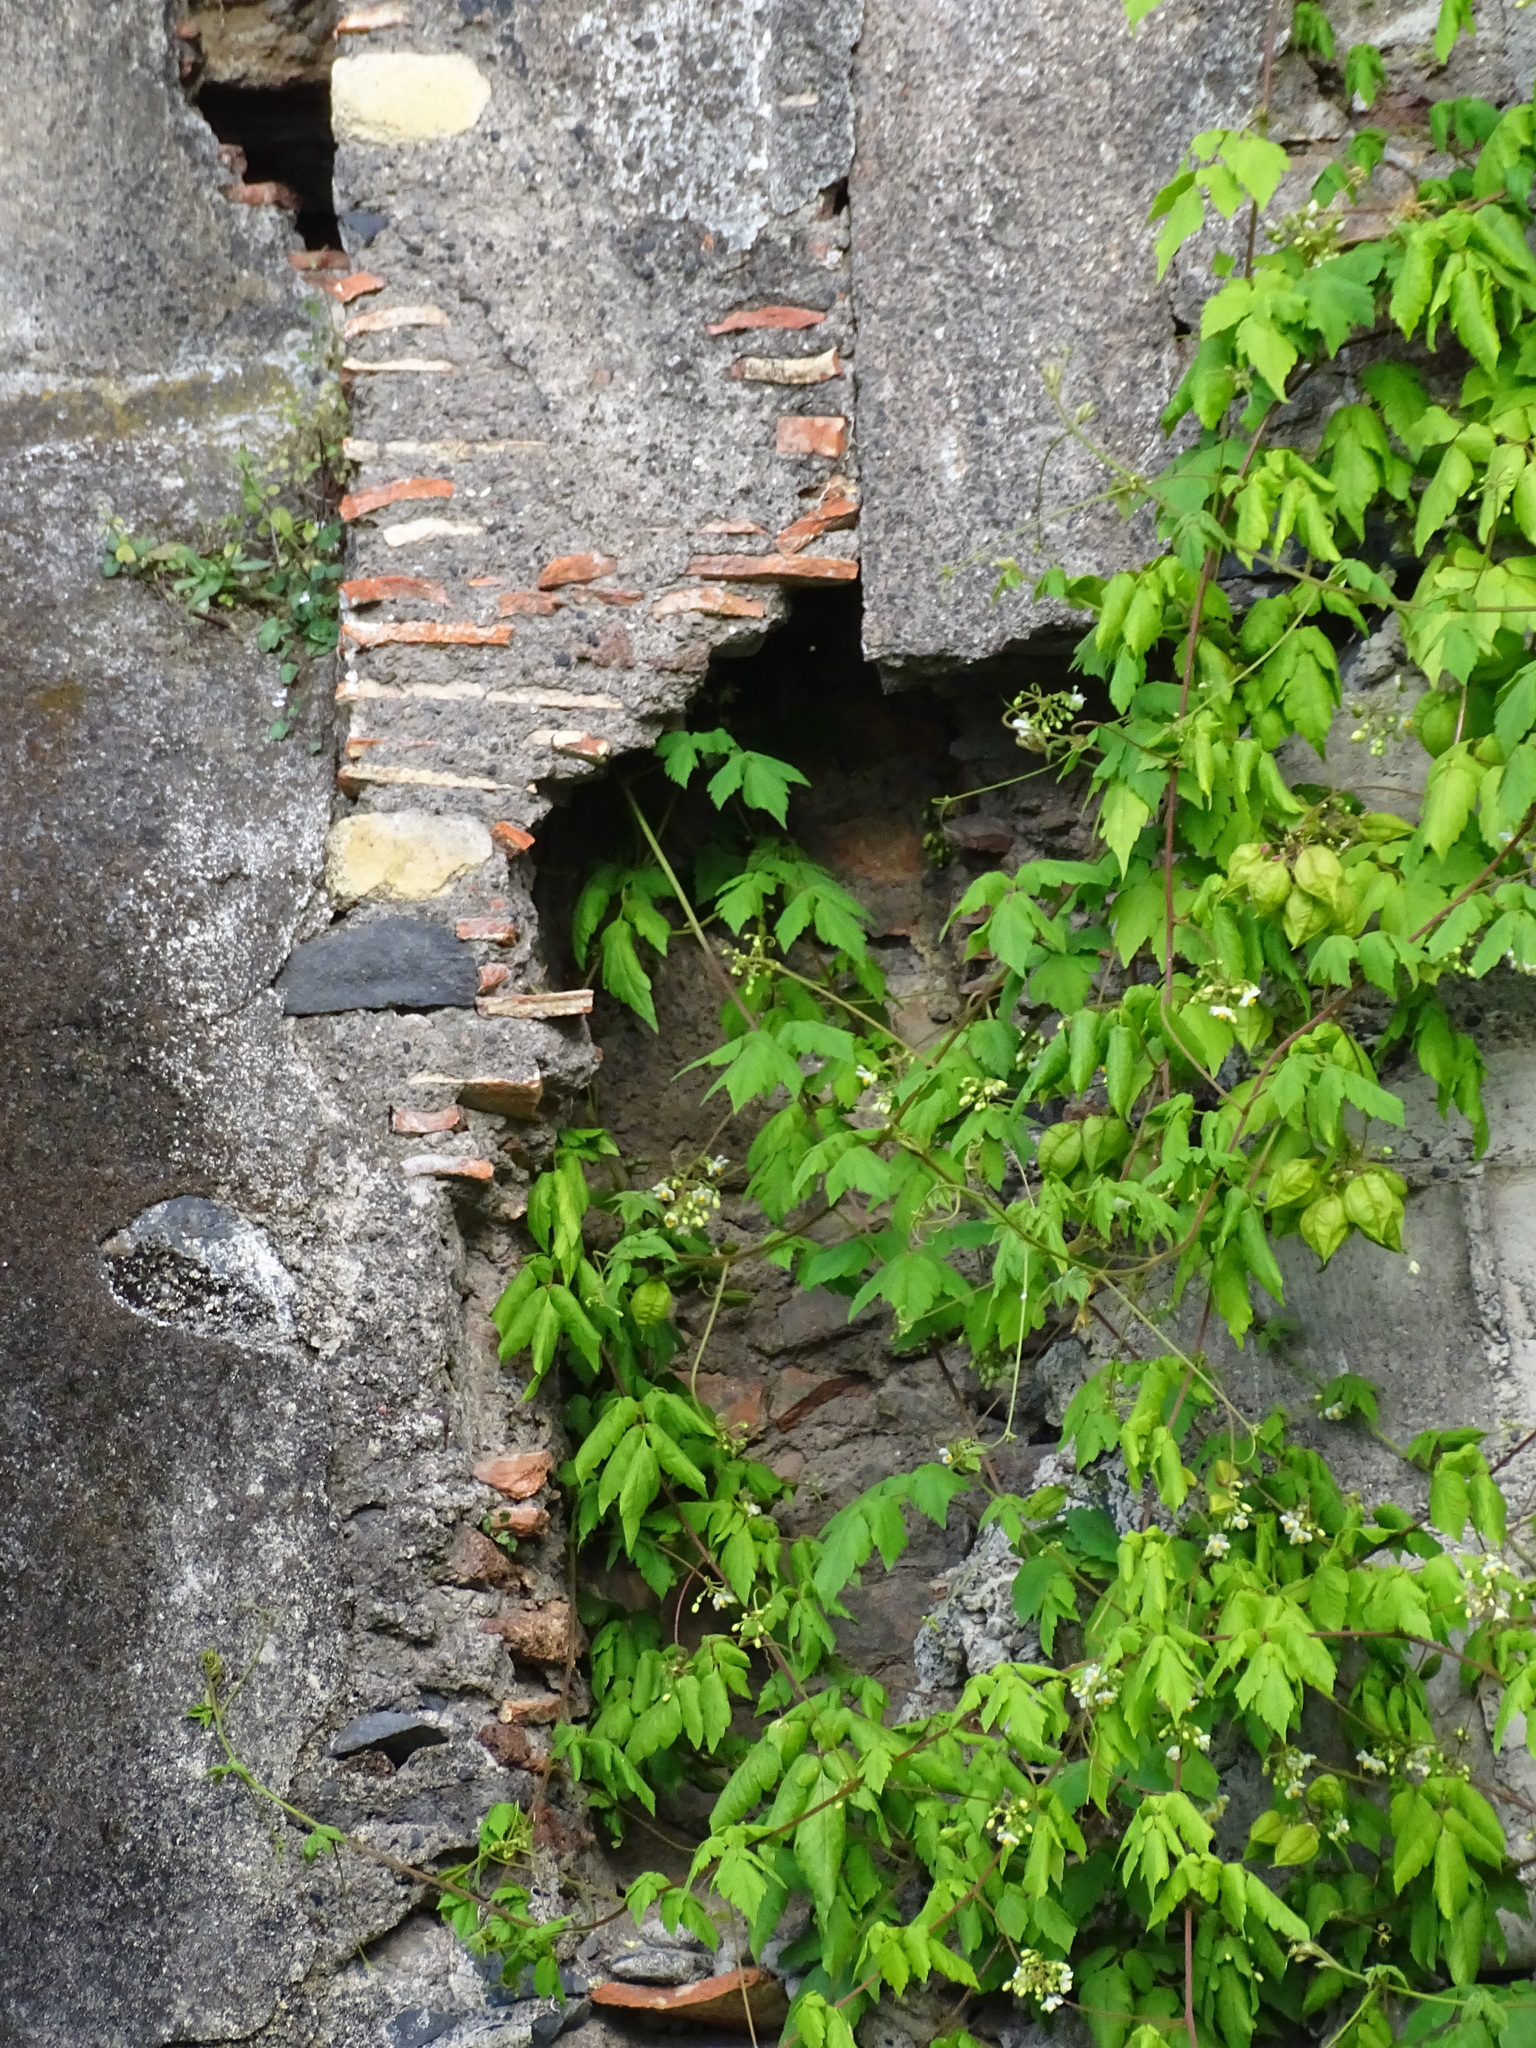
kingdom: Plantae
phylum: Tracheophyta
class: Magnoliopsida
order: Sapindales
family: Sapindaceae
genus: Cardiospermum
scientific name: Cardiospermum grandiflorum
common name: Balloon vine
